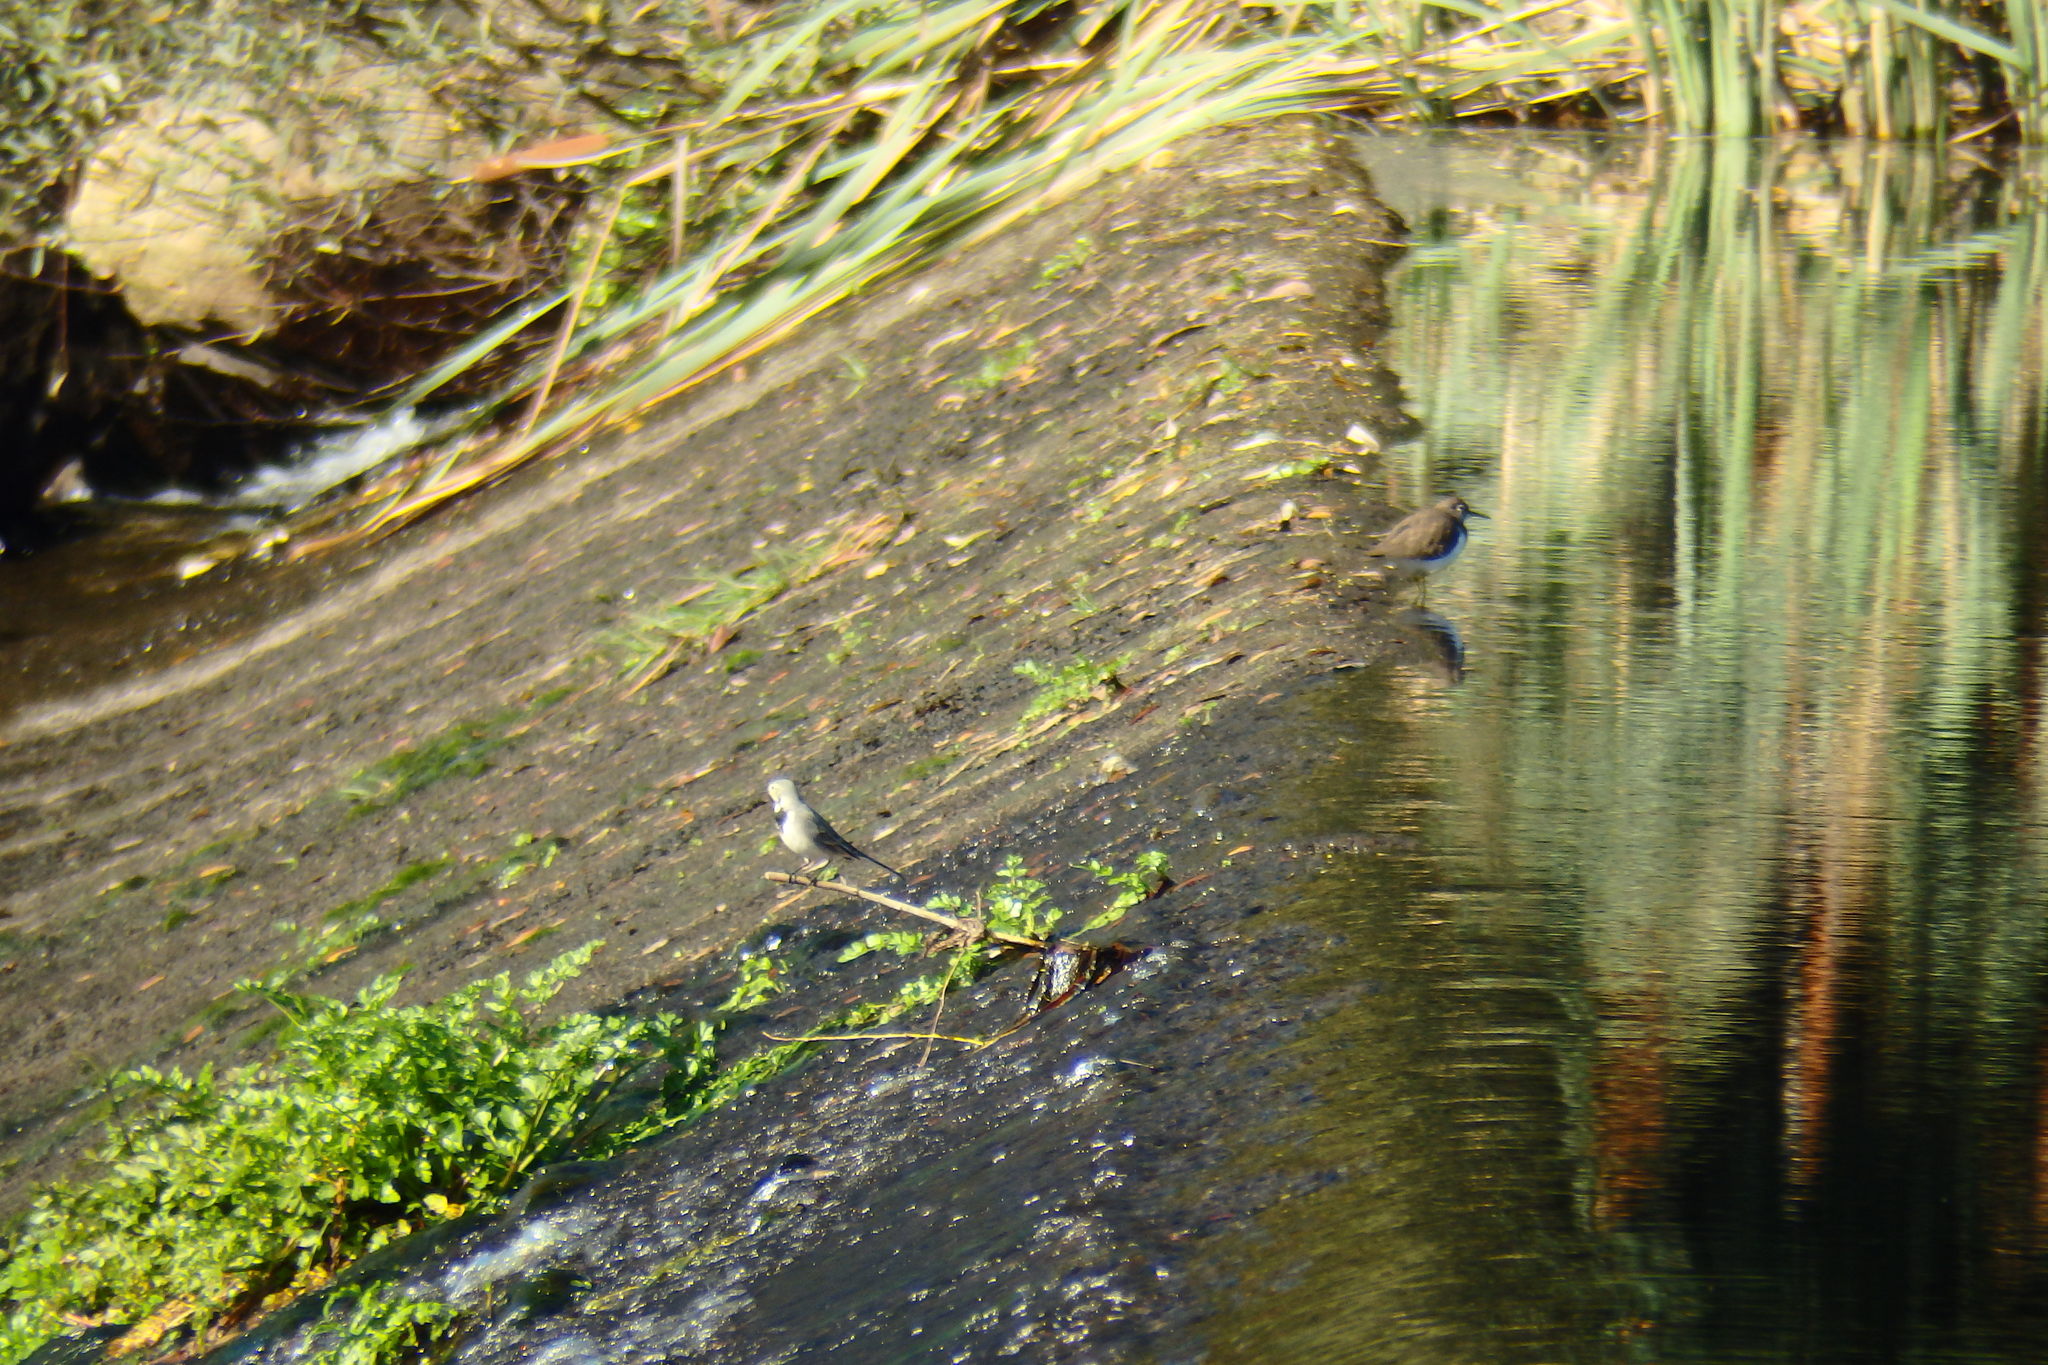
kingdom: Animalia
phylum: Chordata
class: Aves
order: Charadriiformes
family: Scolopacidae
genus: Actitis
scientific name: Actitis hypoleucos
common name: Common sandpiper
